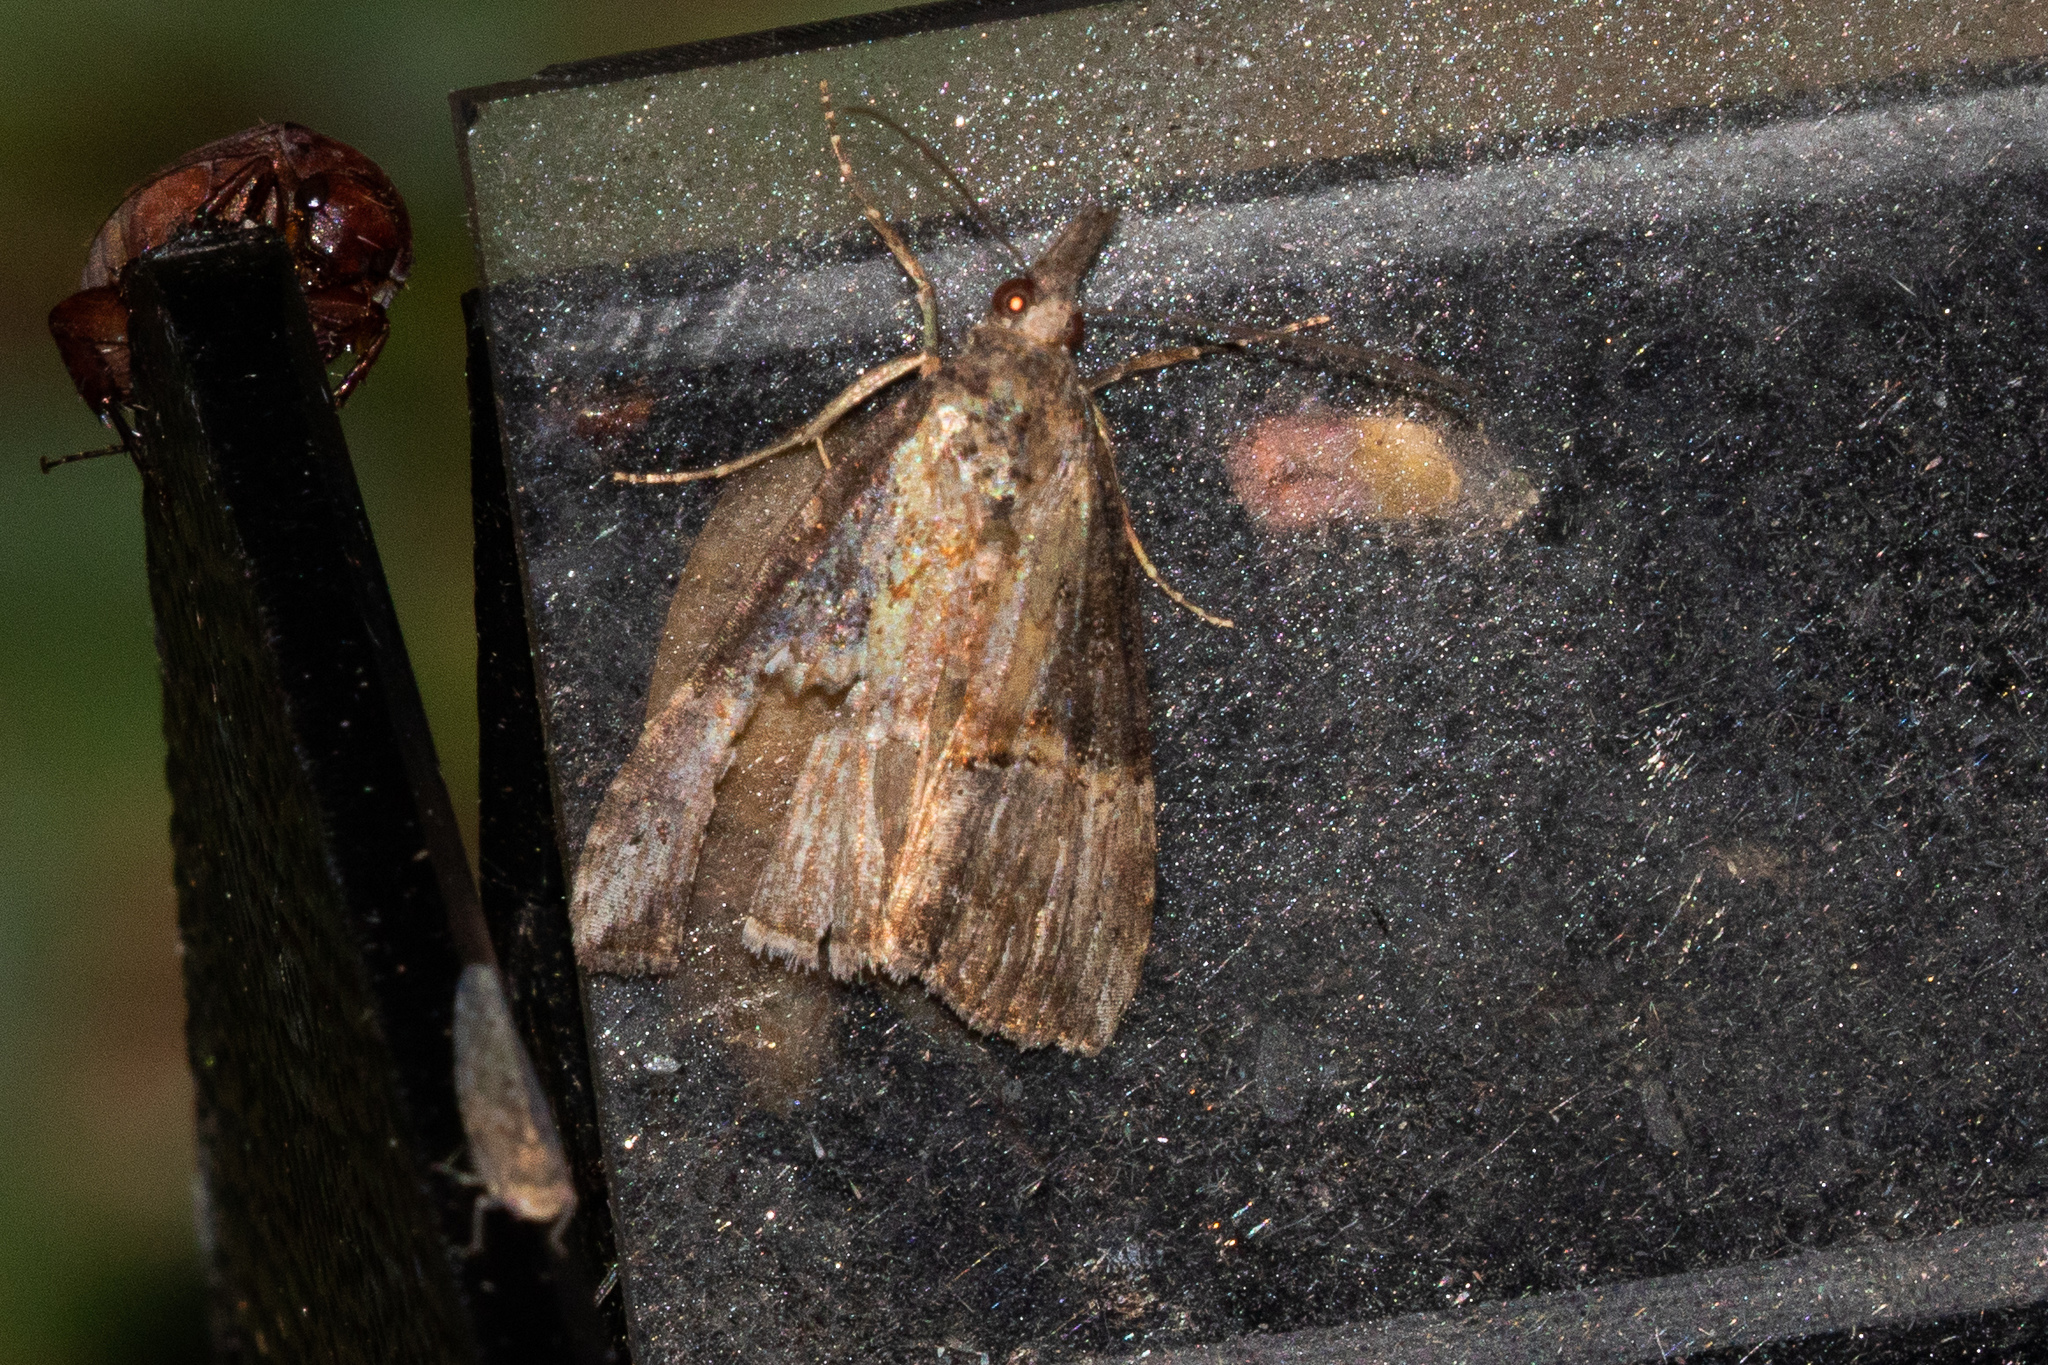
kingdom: Animalia
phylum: Arthropoda
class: Insecta
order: Lepidoptera
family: Erebidae
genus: Hypena
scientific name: Hypena scabra
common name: Green cloverworm
